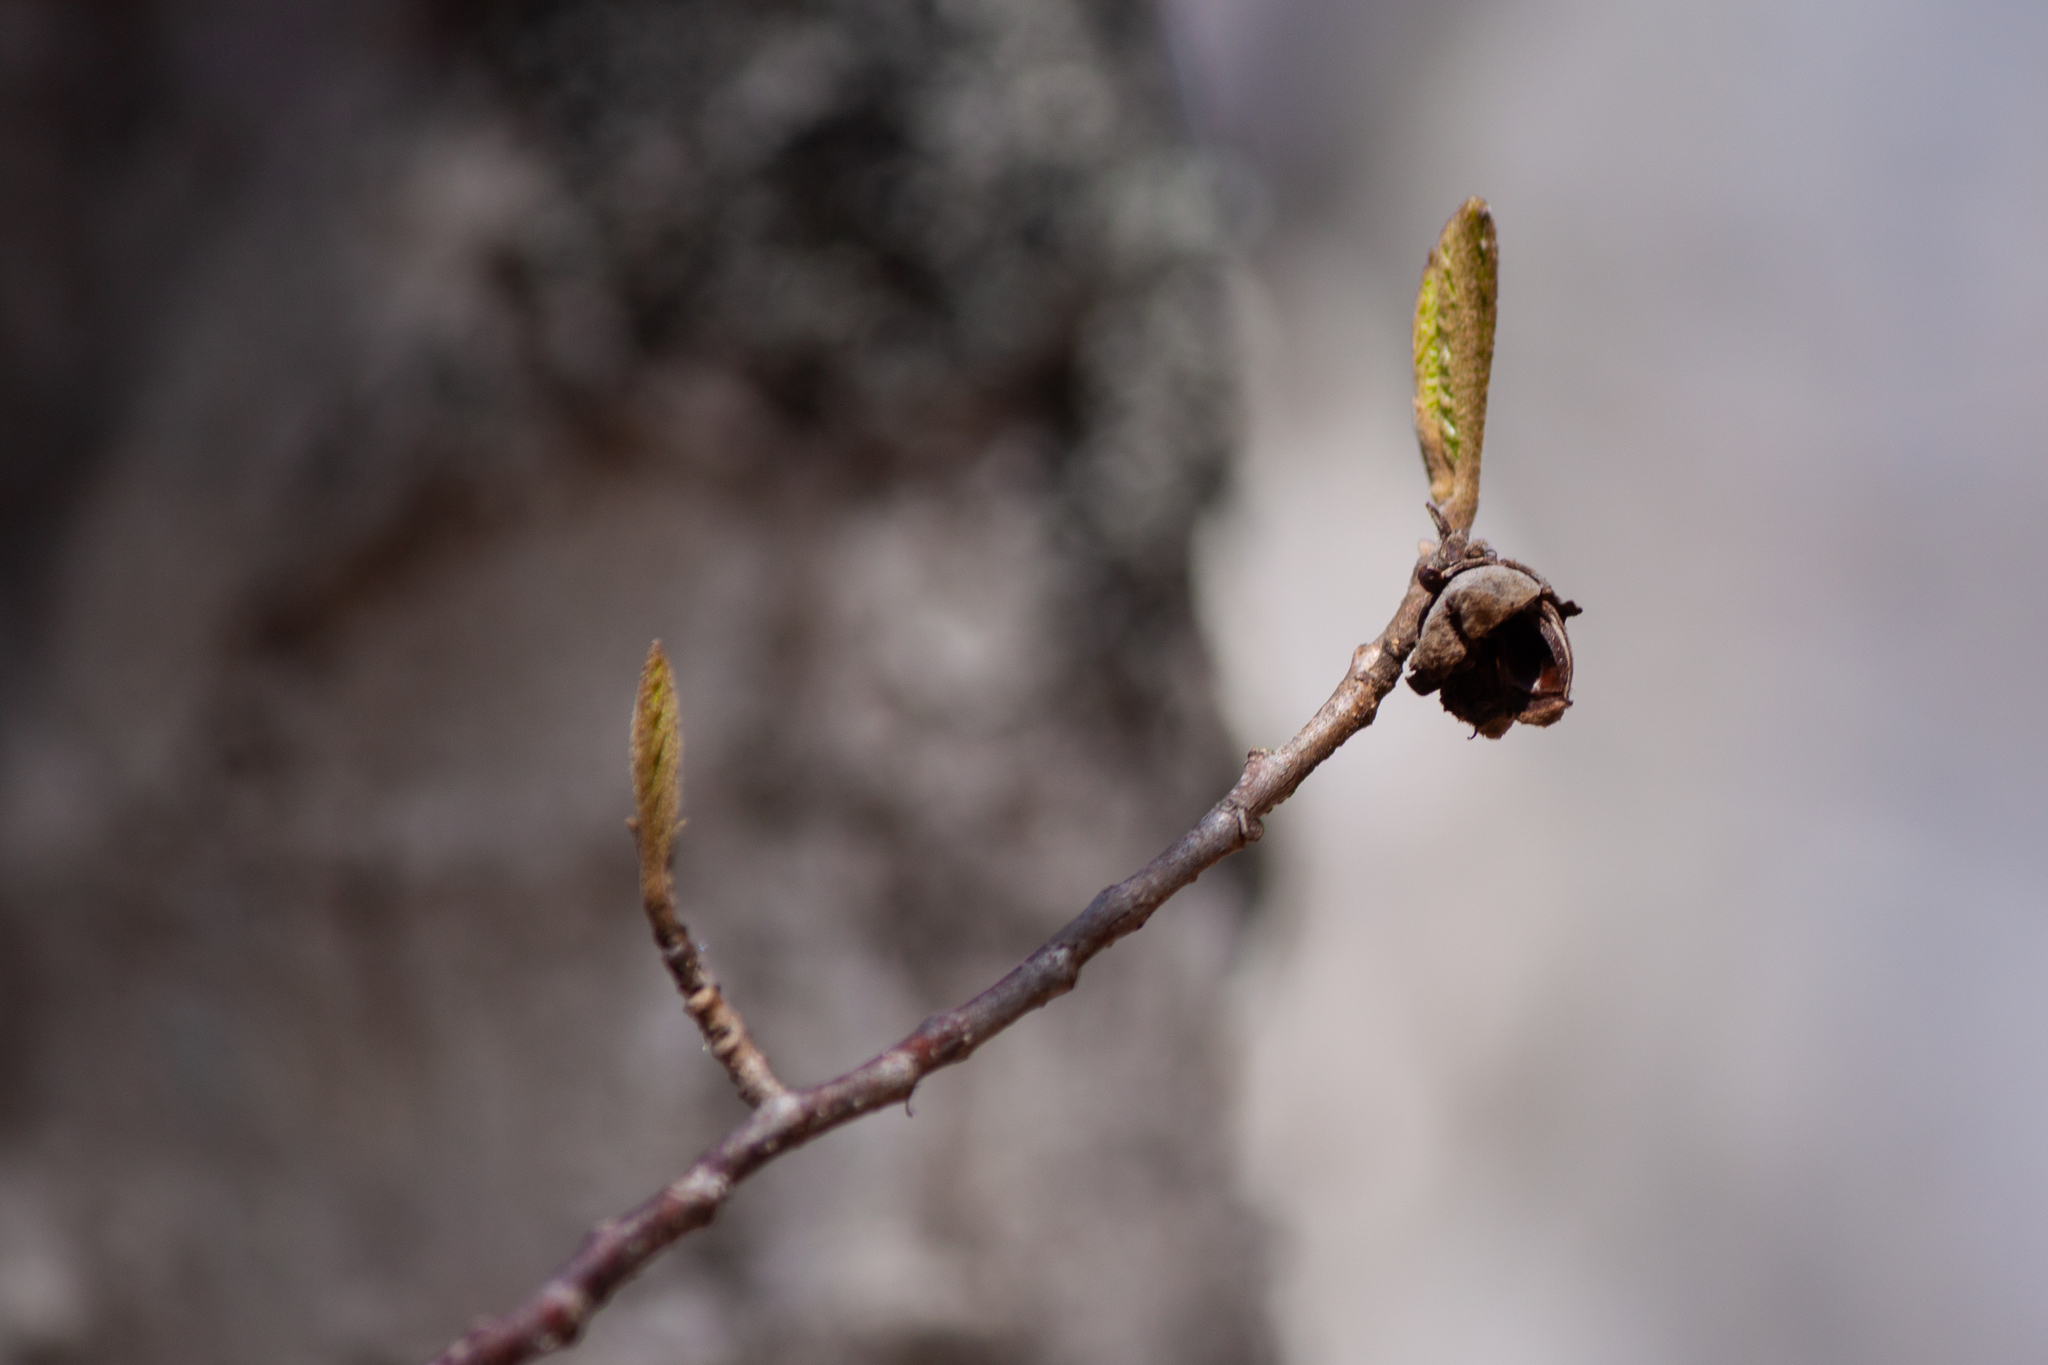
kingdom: Plantae
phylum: Tracheophyta
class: Magnoliopsida
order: Saxifragales
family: Hamamelidaceae
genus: Hamamelis
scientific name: Hamamelis virginiana
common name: Witch-hazel
